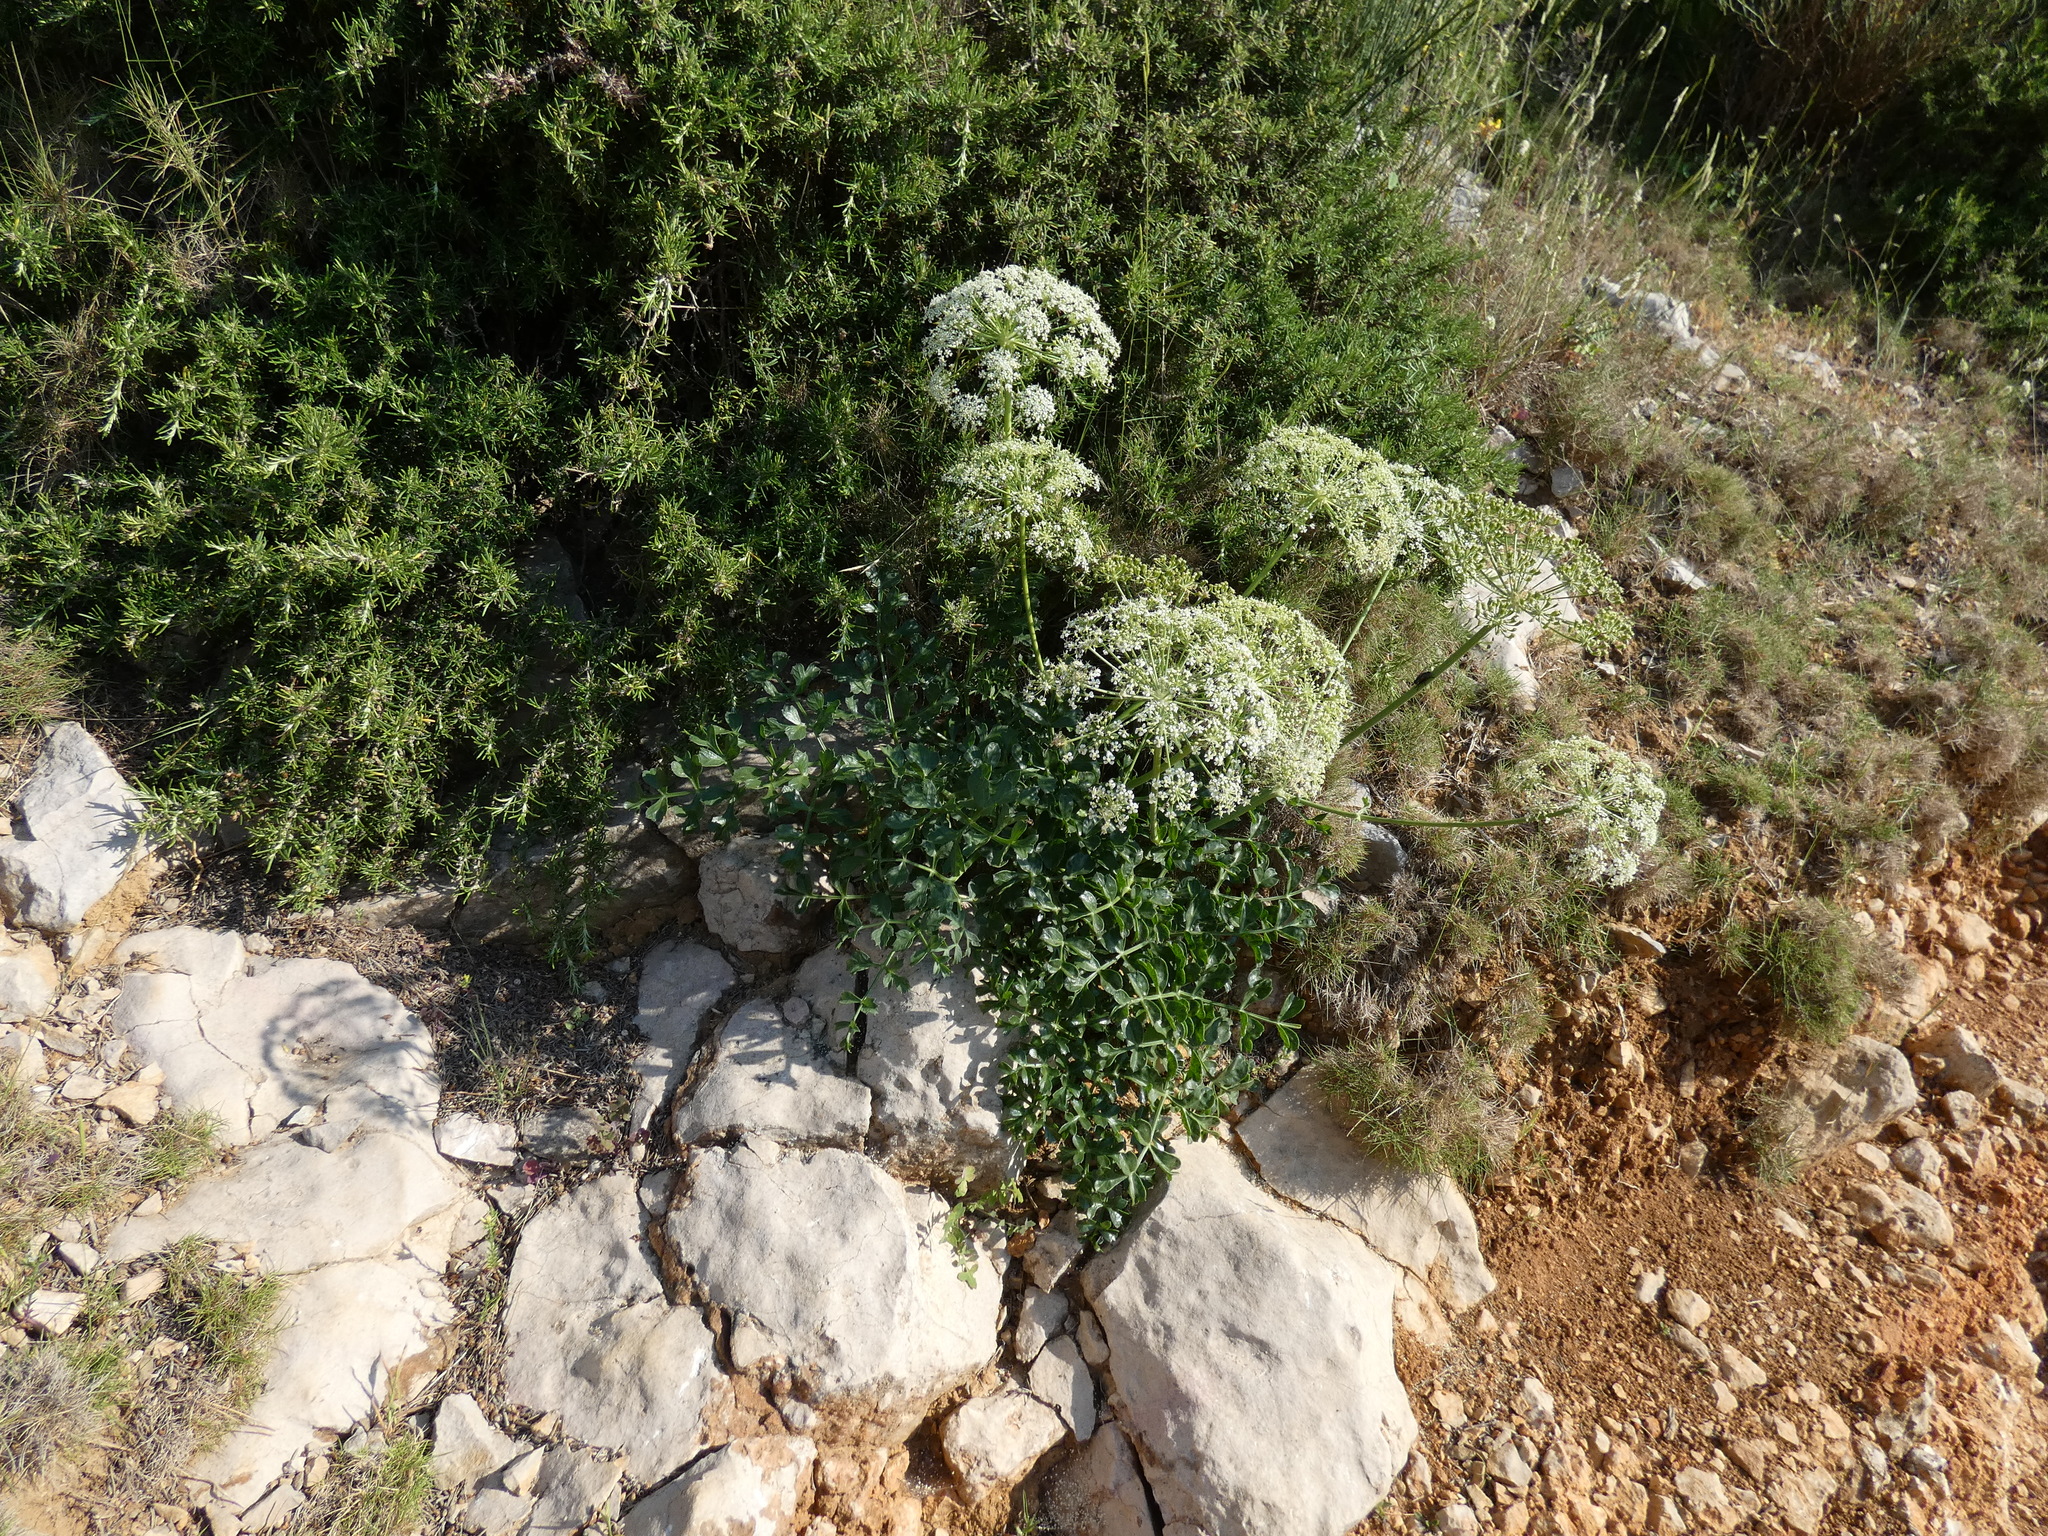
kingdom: Plantae
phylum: Tracheophyta
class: Magnoliopsida
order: Apiales
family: Apiaceae
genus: Laserpitium
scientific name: Laserpitium gallicum
